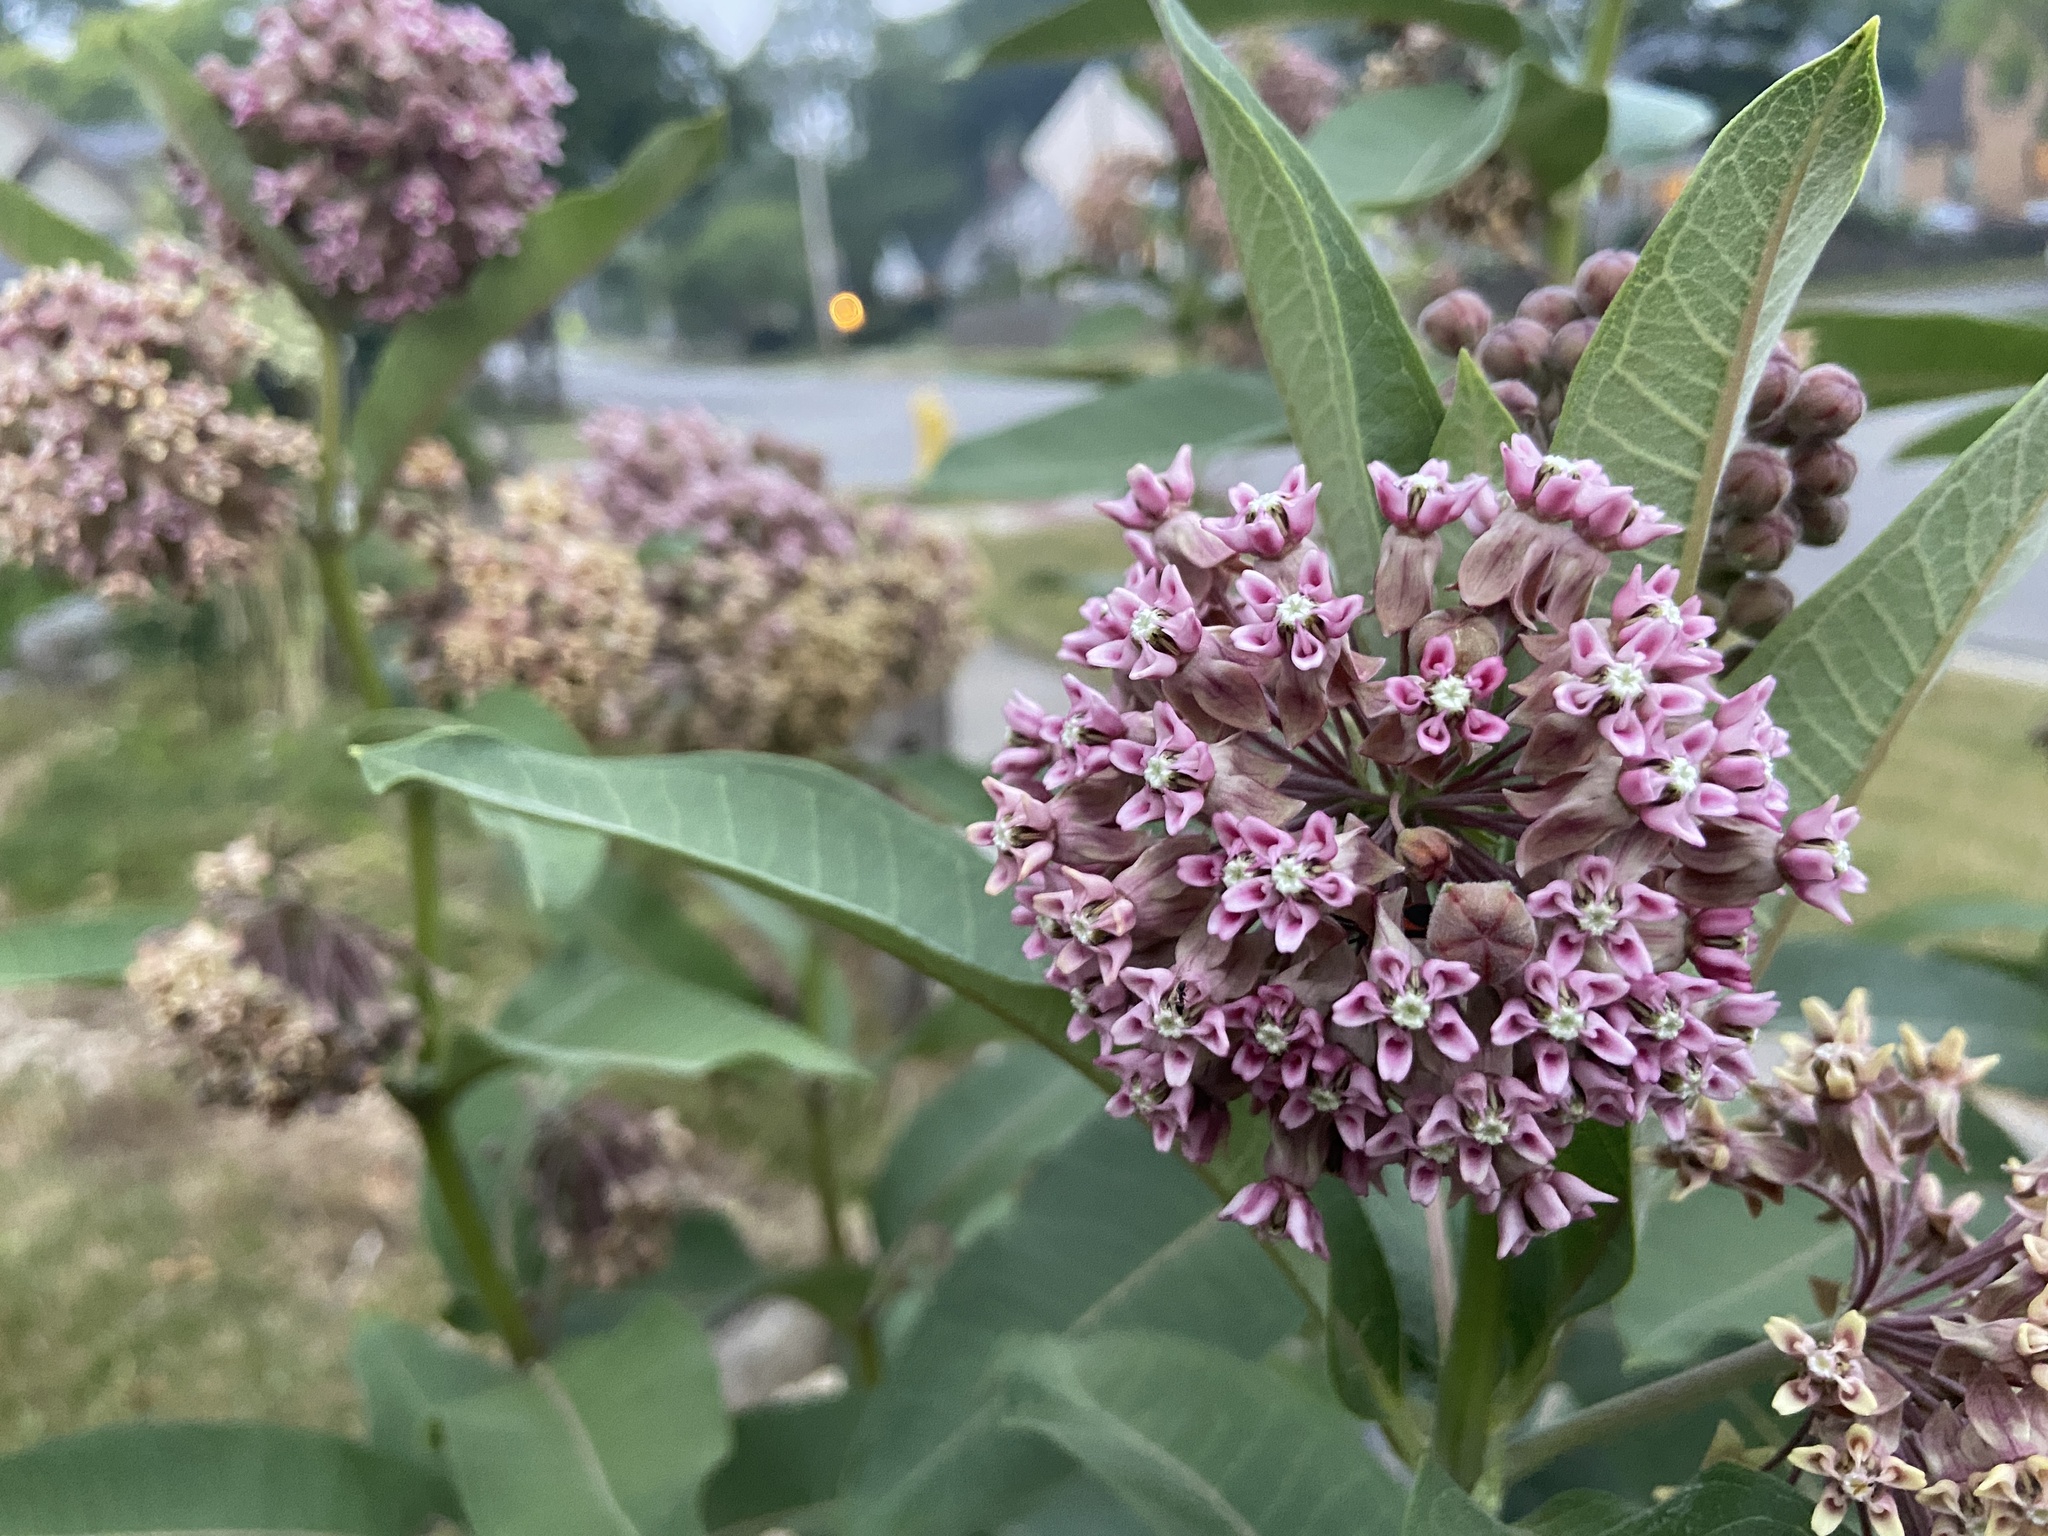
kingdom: Plantae
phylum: Tracheophyta
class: Magnoliopsida
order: Gentianales
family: Apocynaceae
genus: Asclepias
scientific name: Asclepias syriaca
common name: Common milkweed
